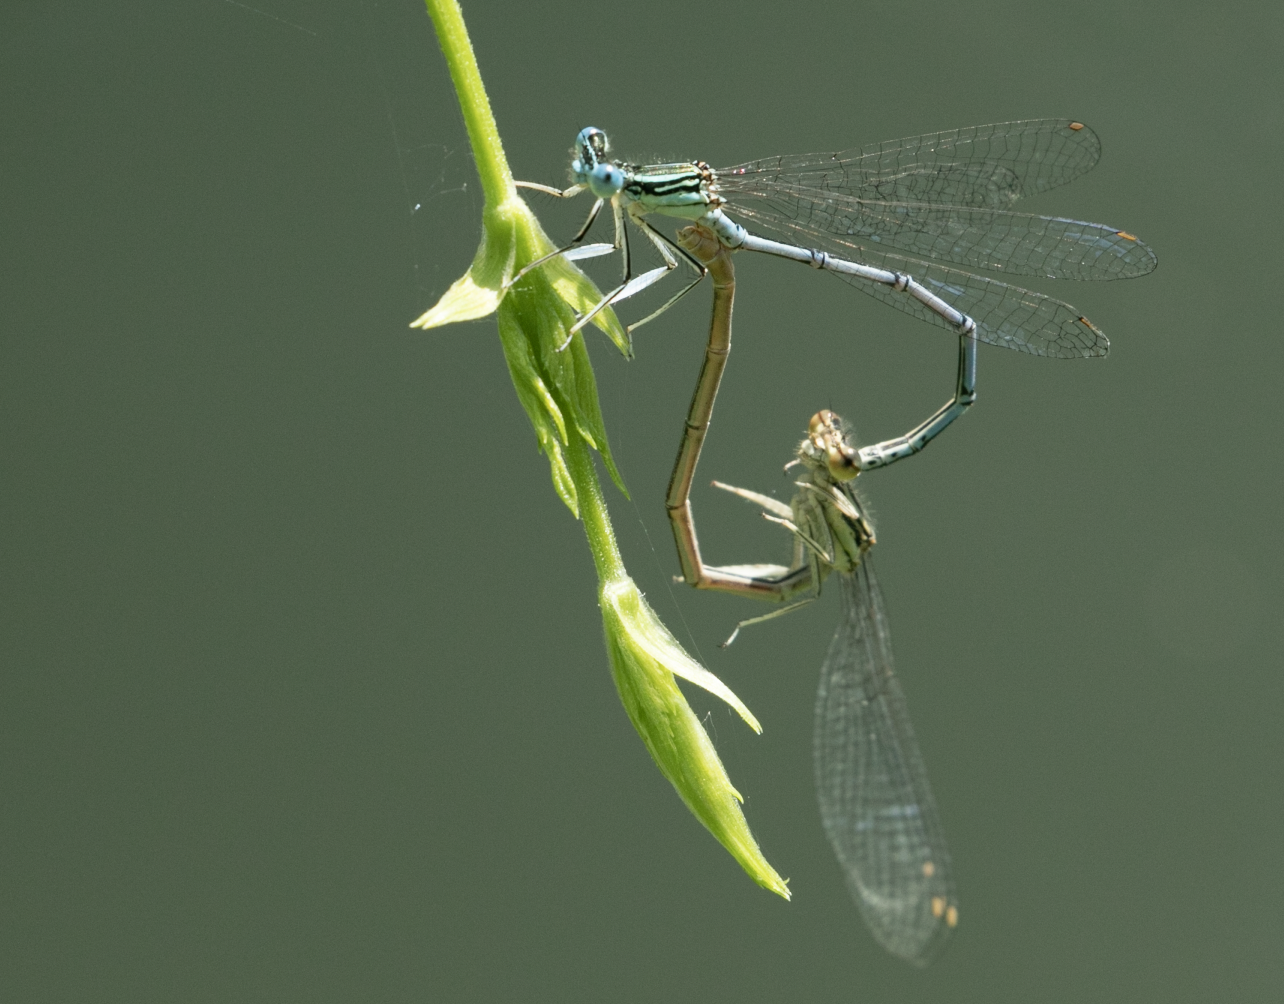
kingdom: Animalia
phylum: Arthropoda
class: Insecta
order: Odonata
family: Platycnemididae
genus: Platycnemis
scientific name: Platycnemis pennipes
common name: White-legged damselfly
